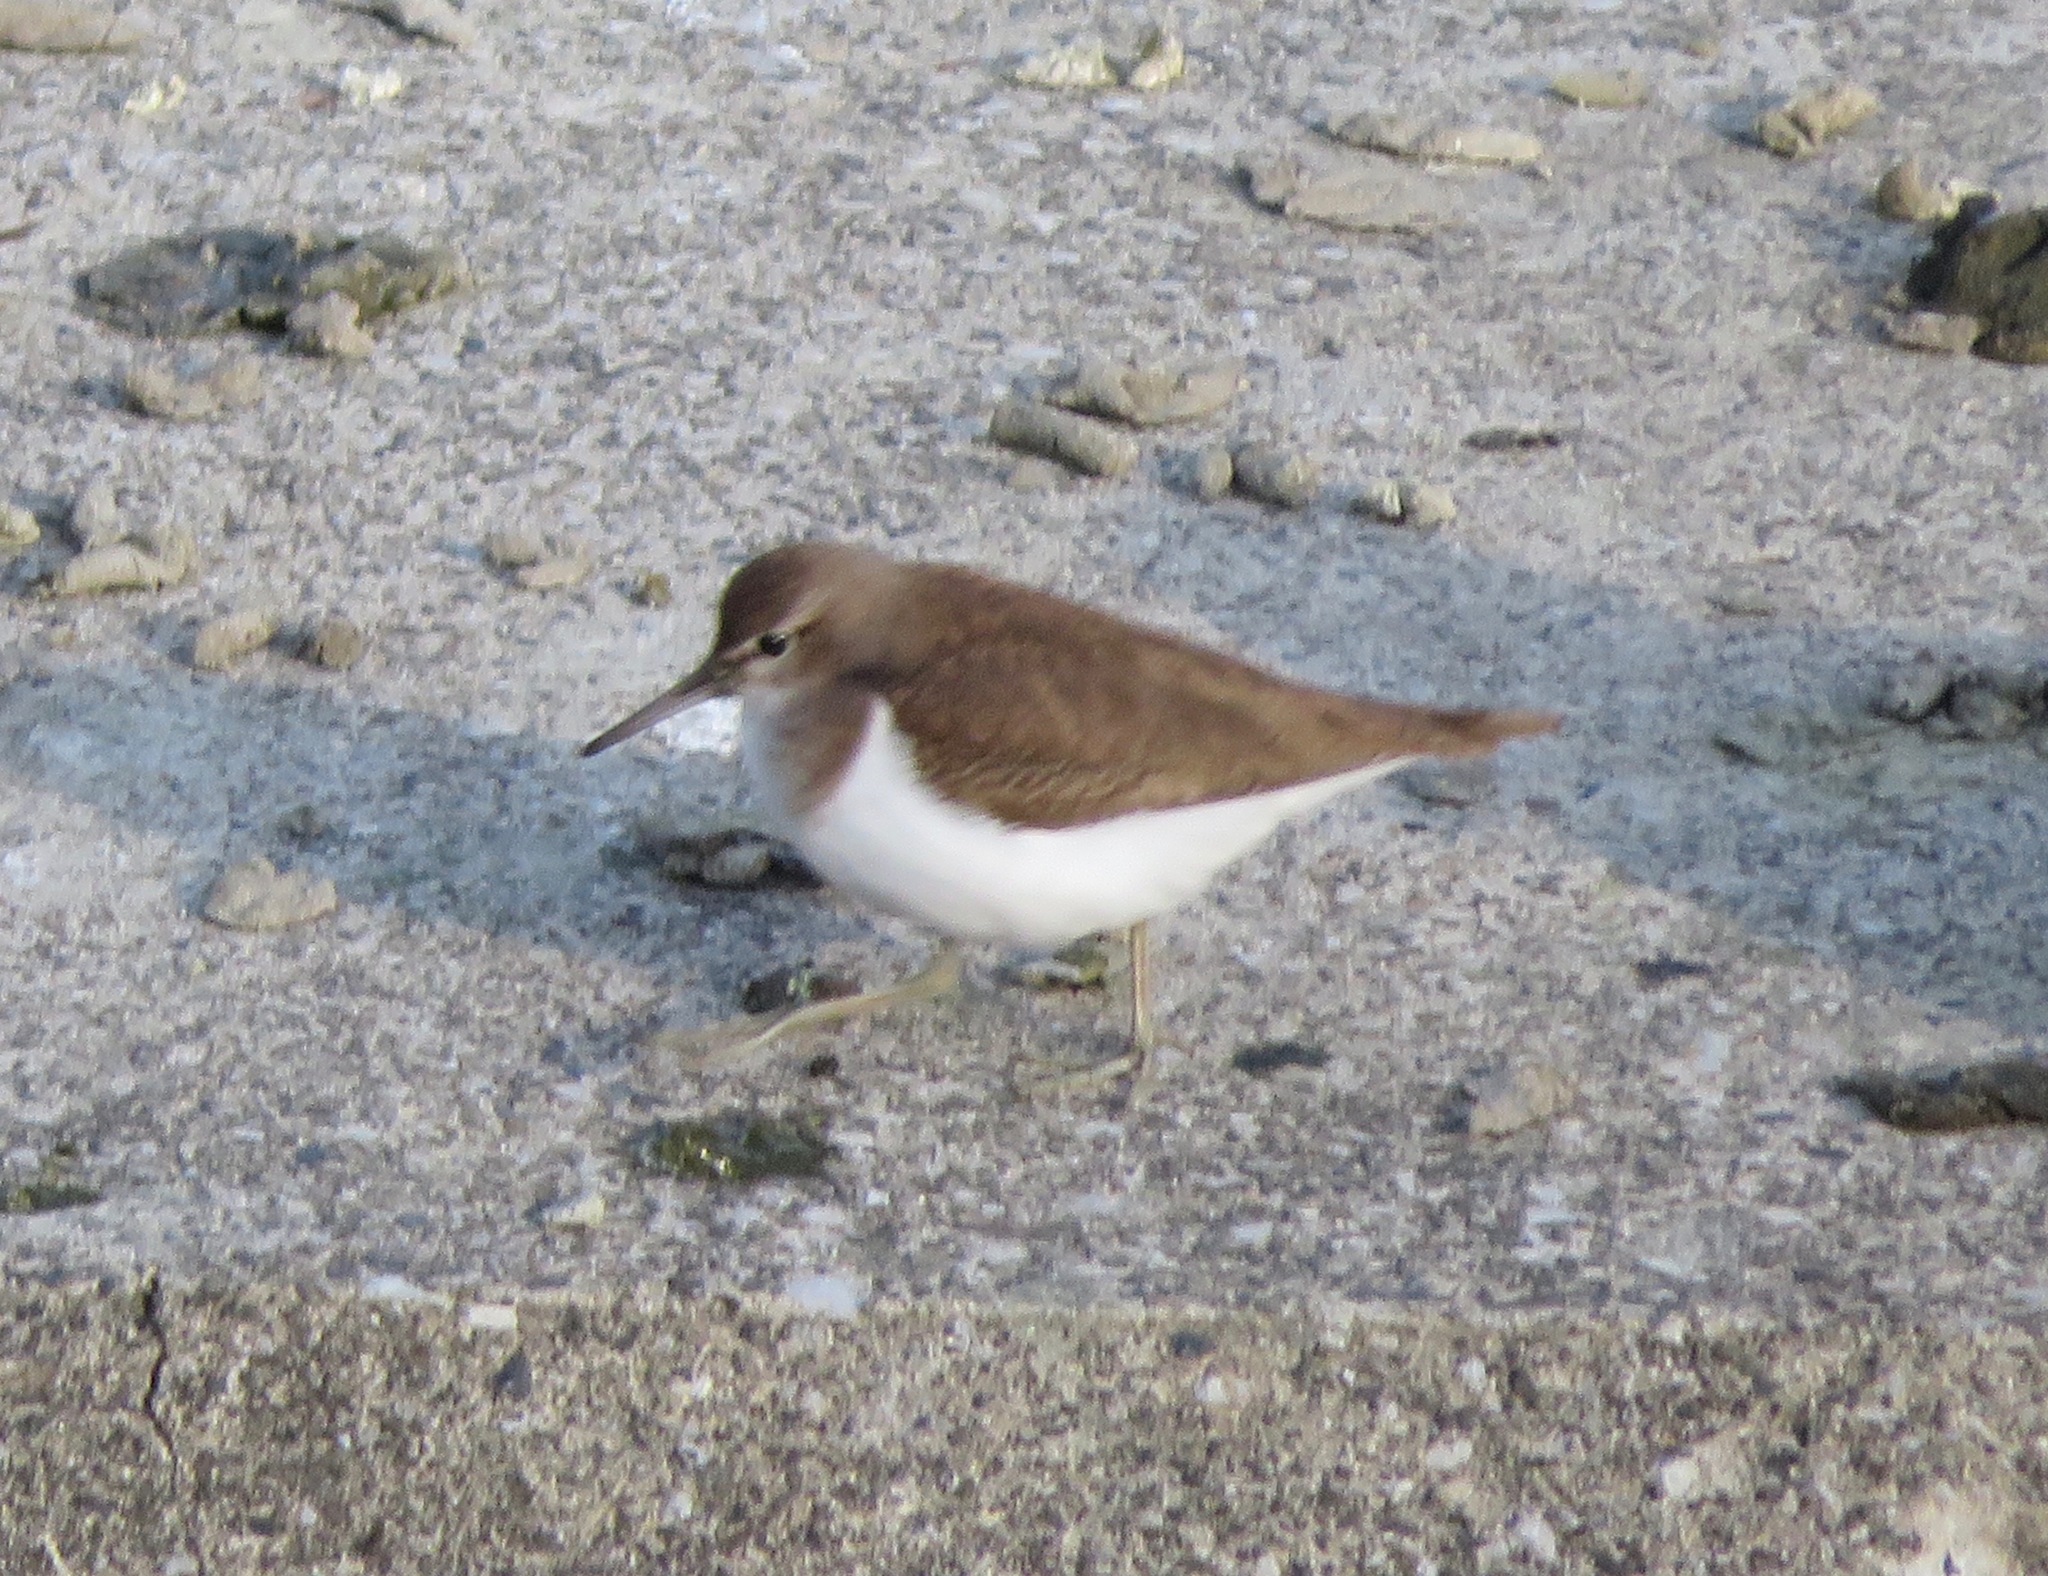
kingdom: Animalia
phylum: Chordata
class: Aves
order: Charadriiformes
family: Scolopacidae
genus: Actitis
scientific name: Actitis hypoleucos
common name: Common sandpiper
